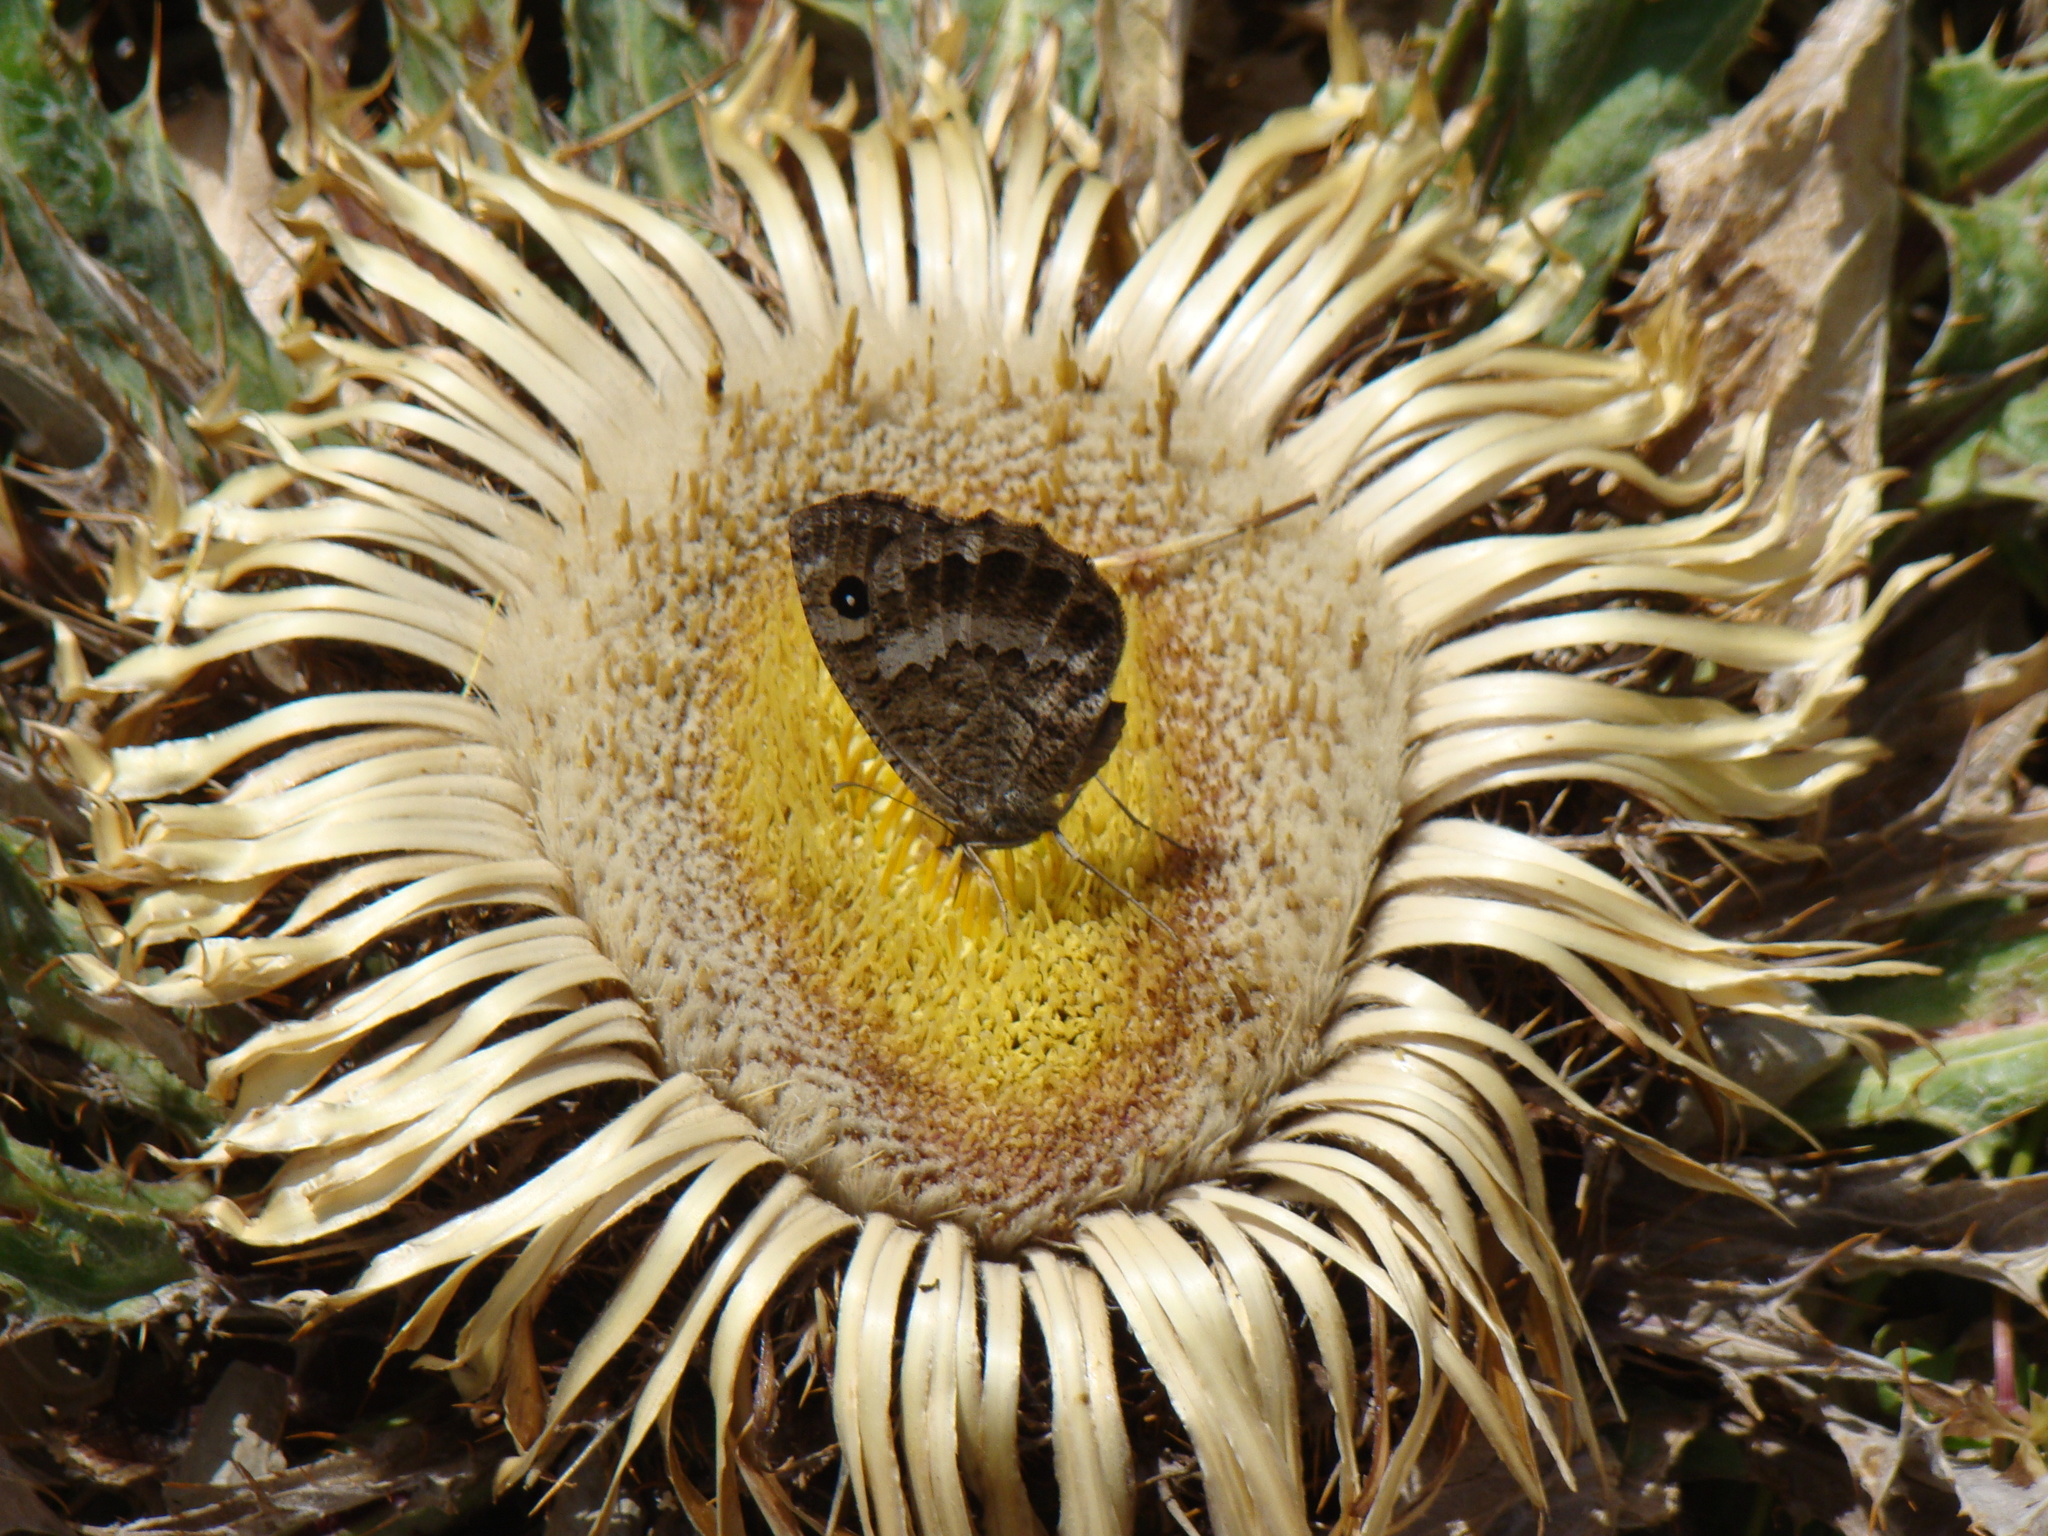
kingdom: Plantae
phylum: Tracheophyta
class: Magnoliopsida
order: Asterales
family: Asteraceae
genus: Carlina
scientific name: Carlina acanthifolia
